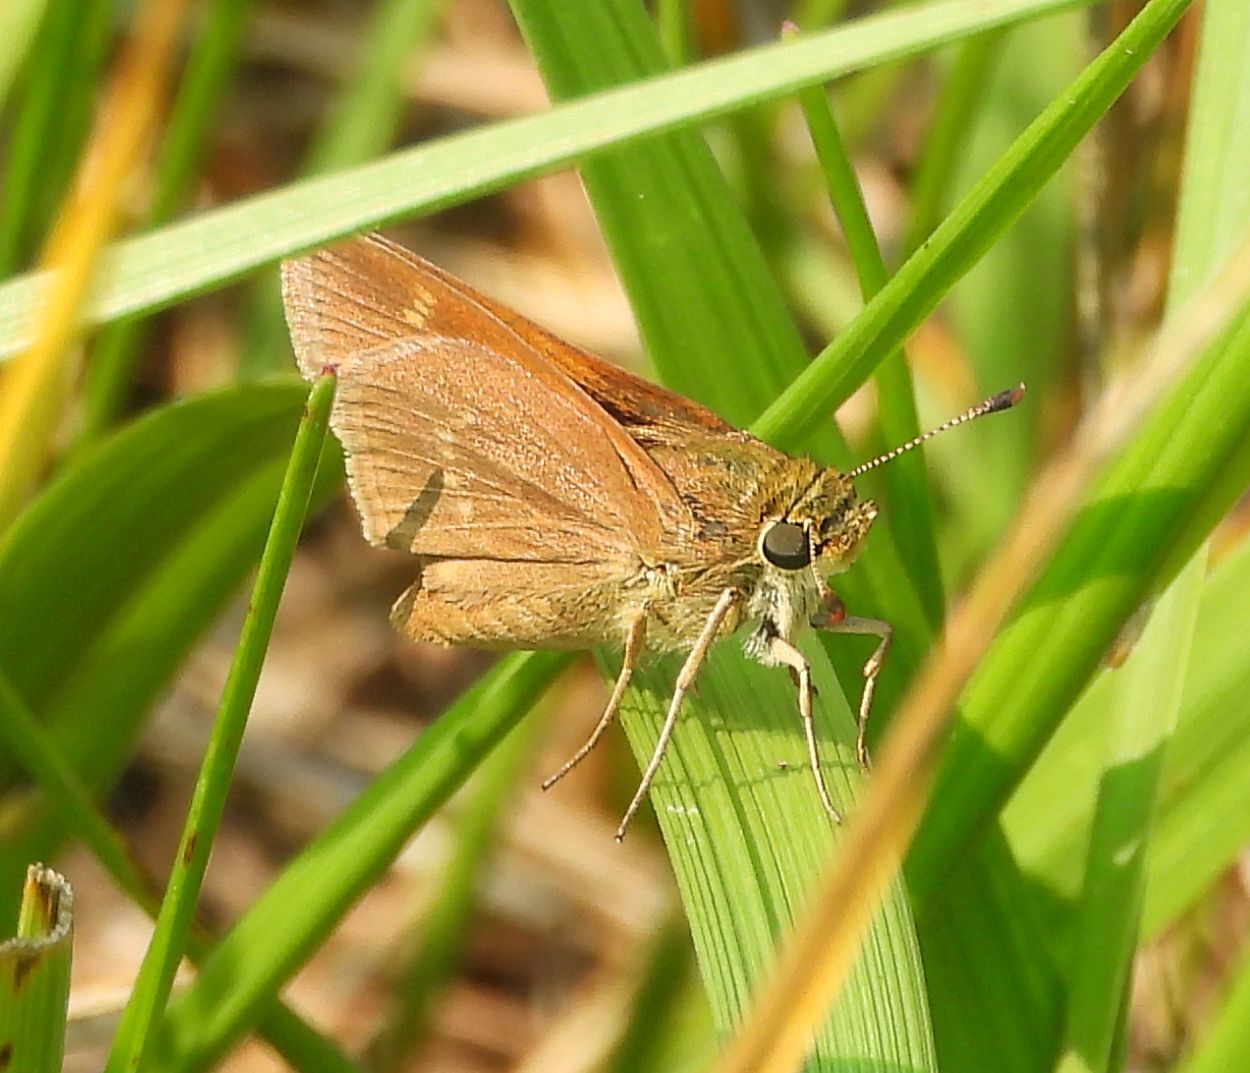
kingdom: Animalia
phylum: Arthropoda
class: Insecta
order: Lepidoptera
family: Hesperiidae
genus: Polites
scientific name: Polites origenes
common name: Crossline skipper
